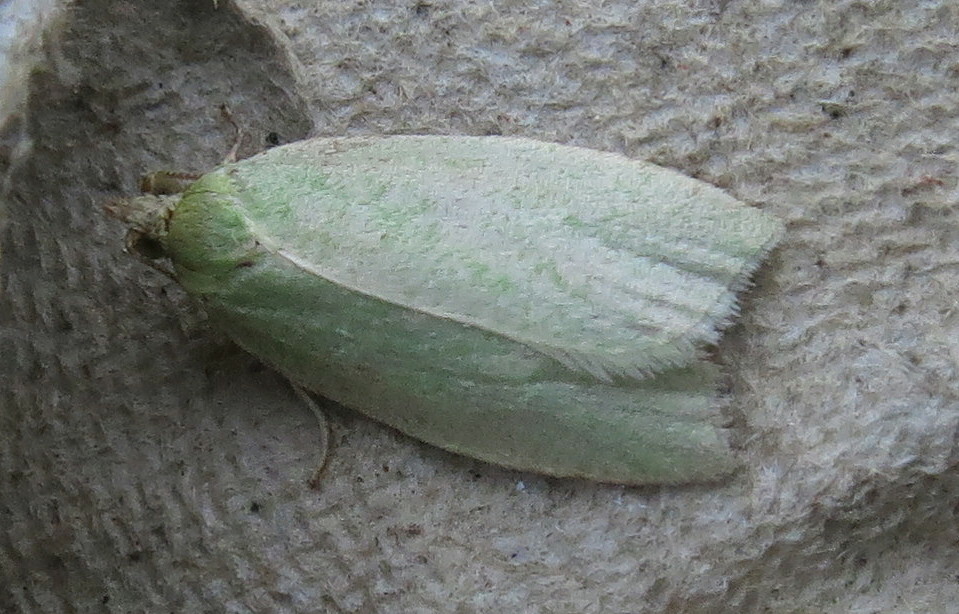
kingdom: Animalia
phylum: Arthropoda
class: Insecta
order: Lepidoptera
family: Tortricidae
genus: Tortrix
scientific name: Tortrix viridana
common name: Green oak tortrix
